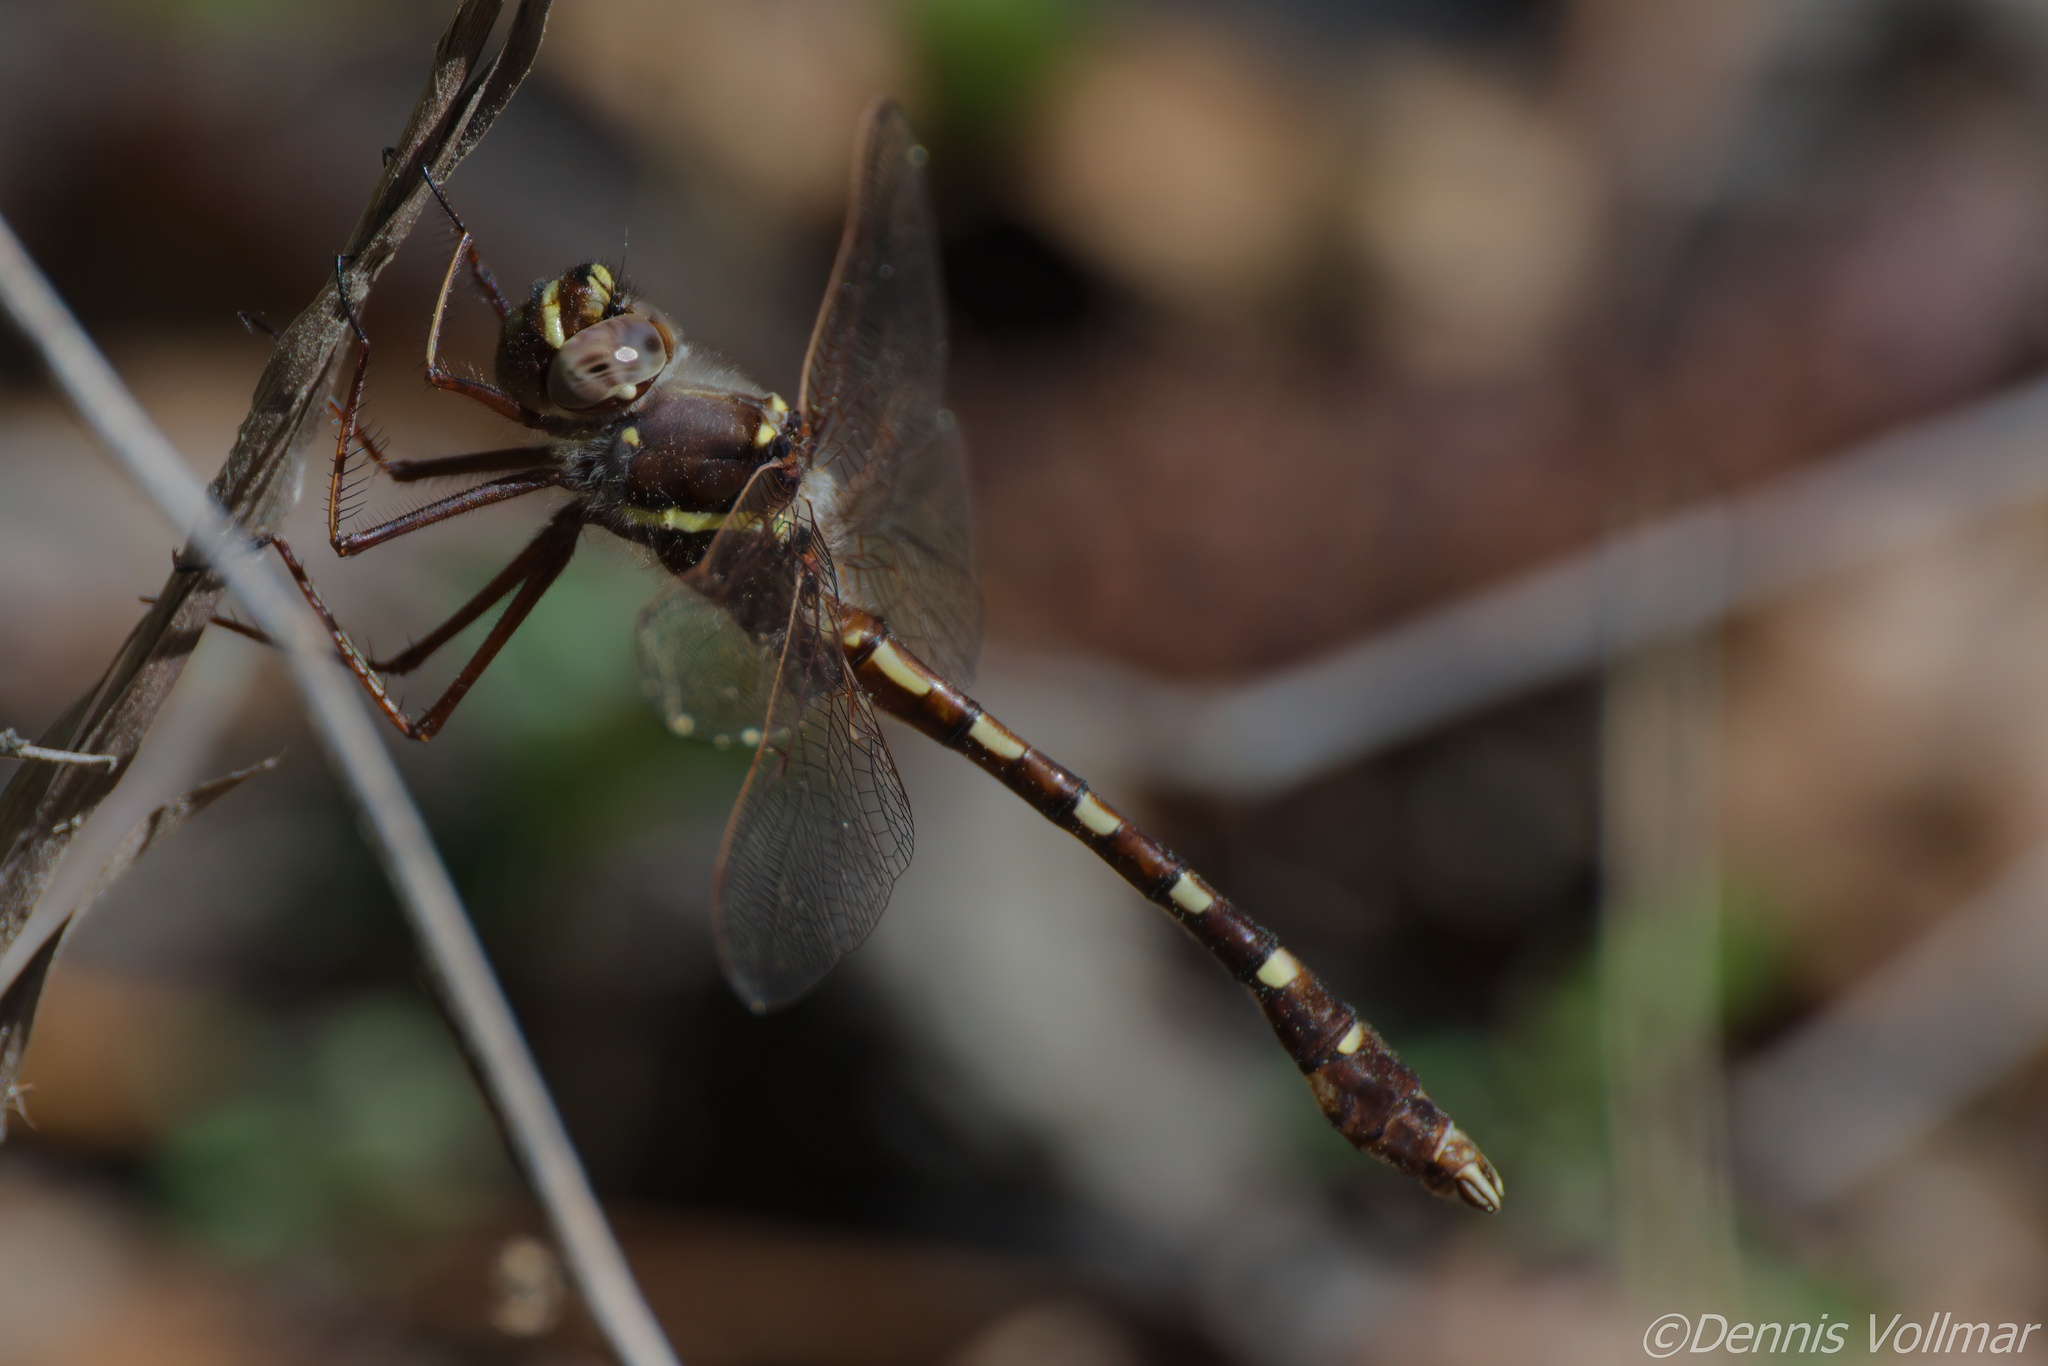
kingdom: Animalia
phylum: Arthropoda
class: Insecta
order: Odonata
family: Macromiidae
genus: Didymops
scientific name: Didymops transversa
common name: Stream cruiser
